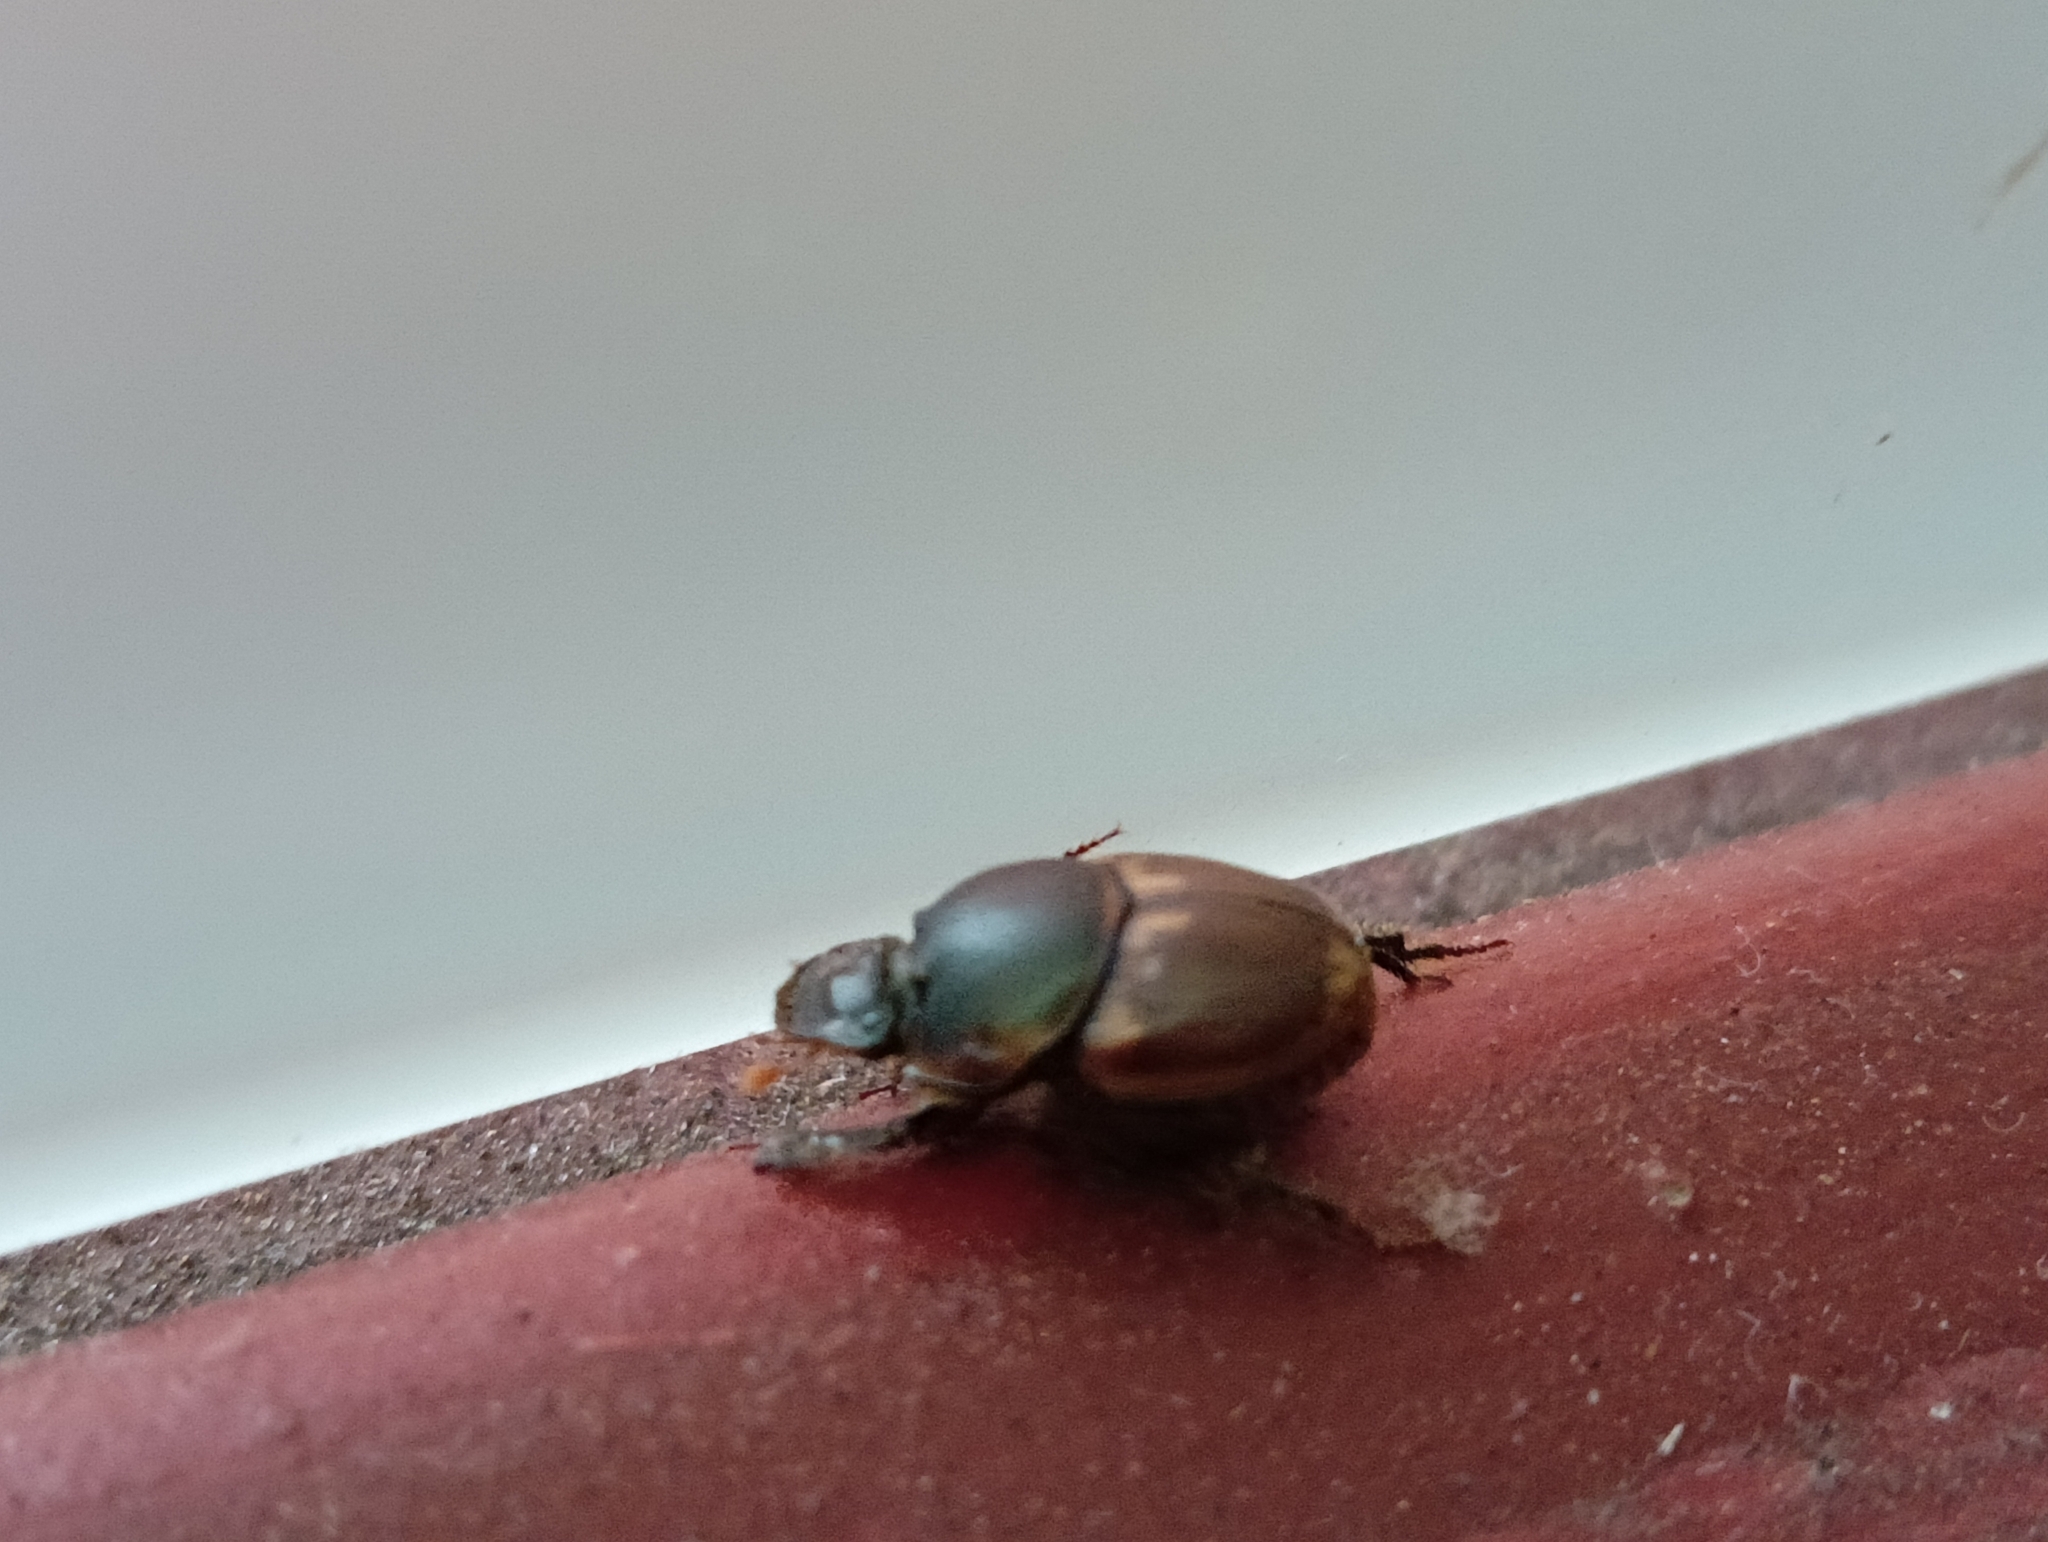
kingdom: Animalia
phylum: Arthropoda
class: Insecta
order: Coleoptera
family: Scarabaeidae
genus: Digitonthophagus
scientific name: Digitonthophagus gazella
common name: Brown dung beetle
